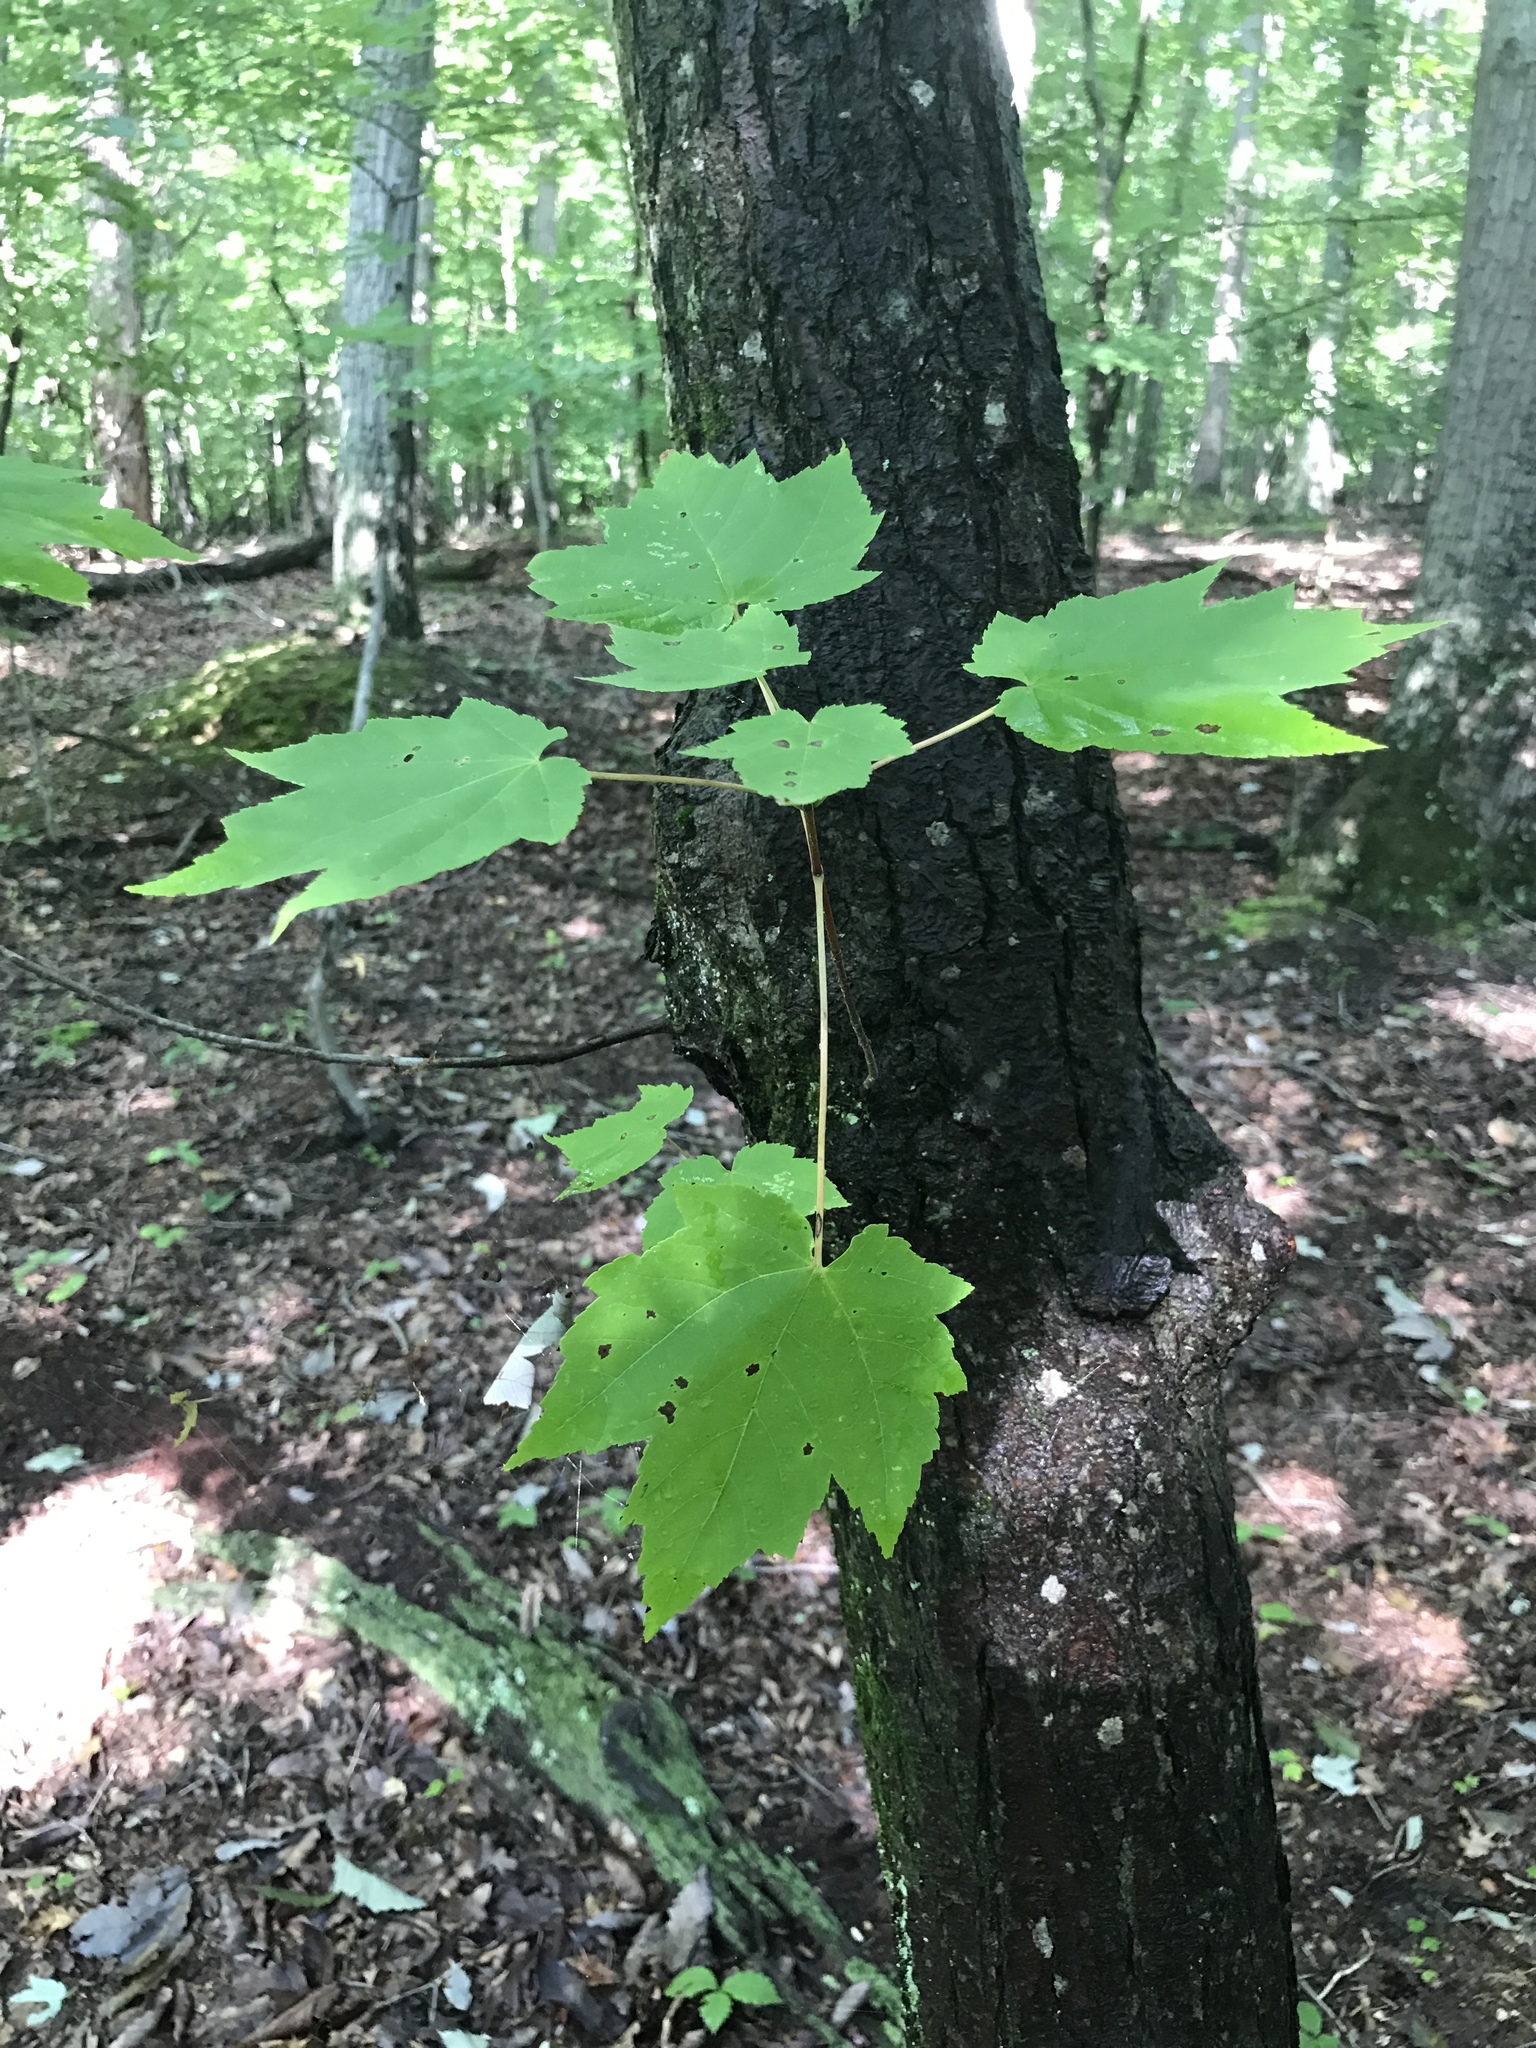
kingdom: Plantae
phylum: Tracheophyta
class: Magnoliopsida
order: Sapindales
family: Sapindaceae
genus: Acer
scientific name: Acer rubrum
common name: Red maple
